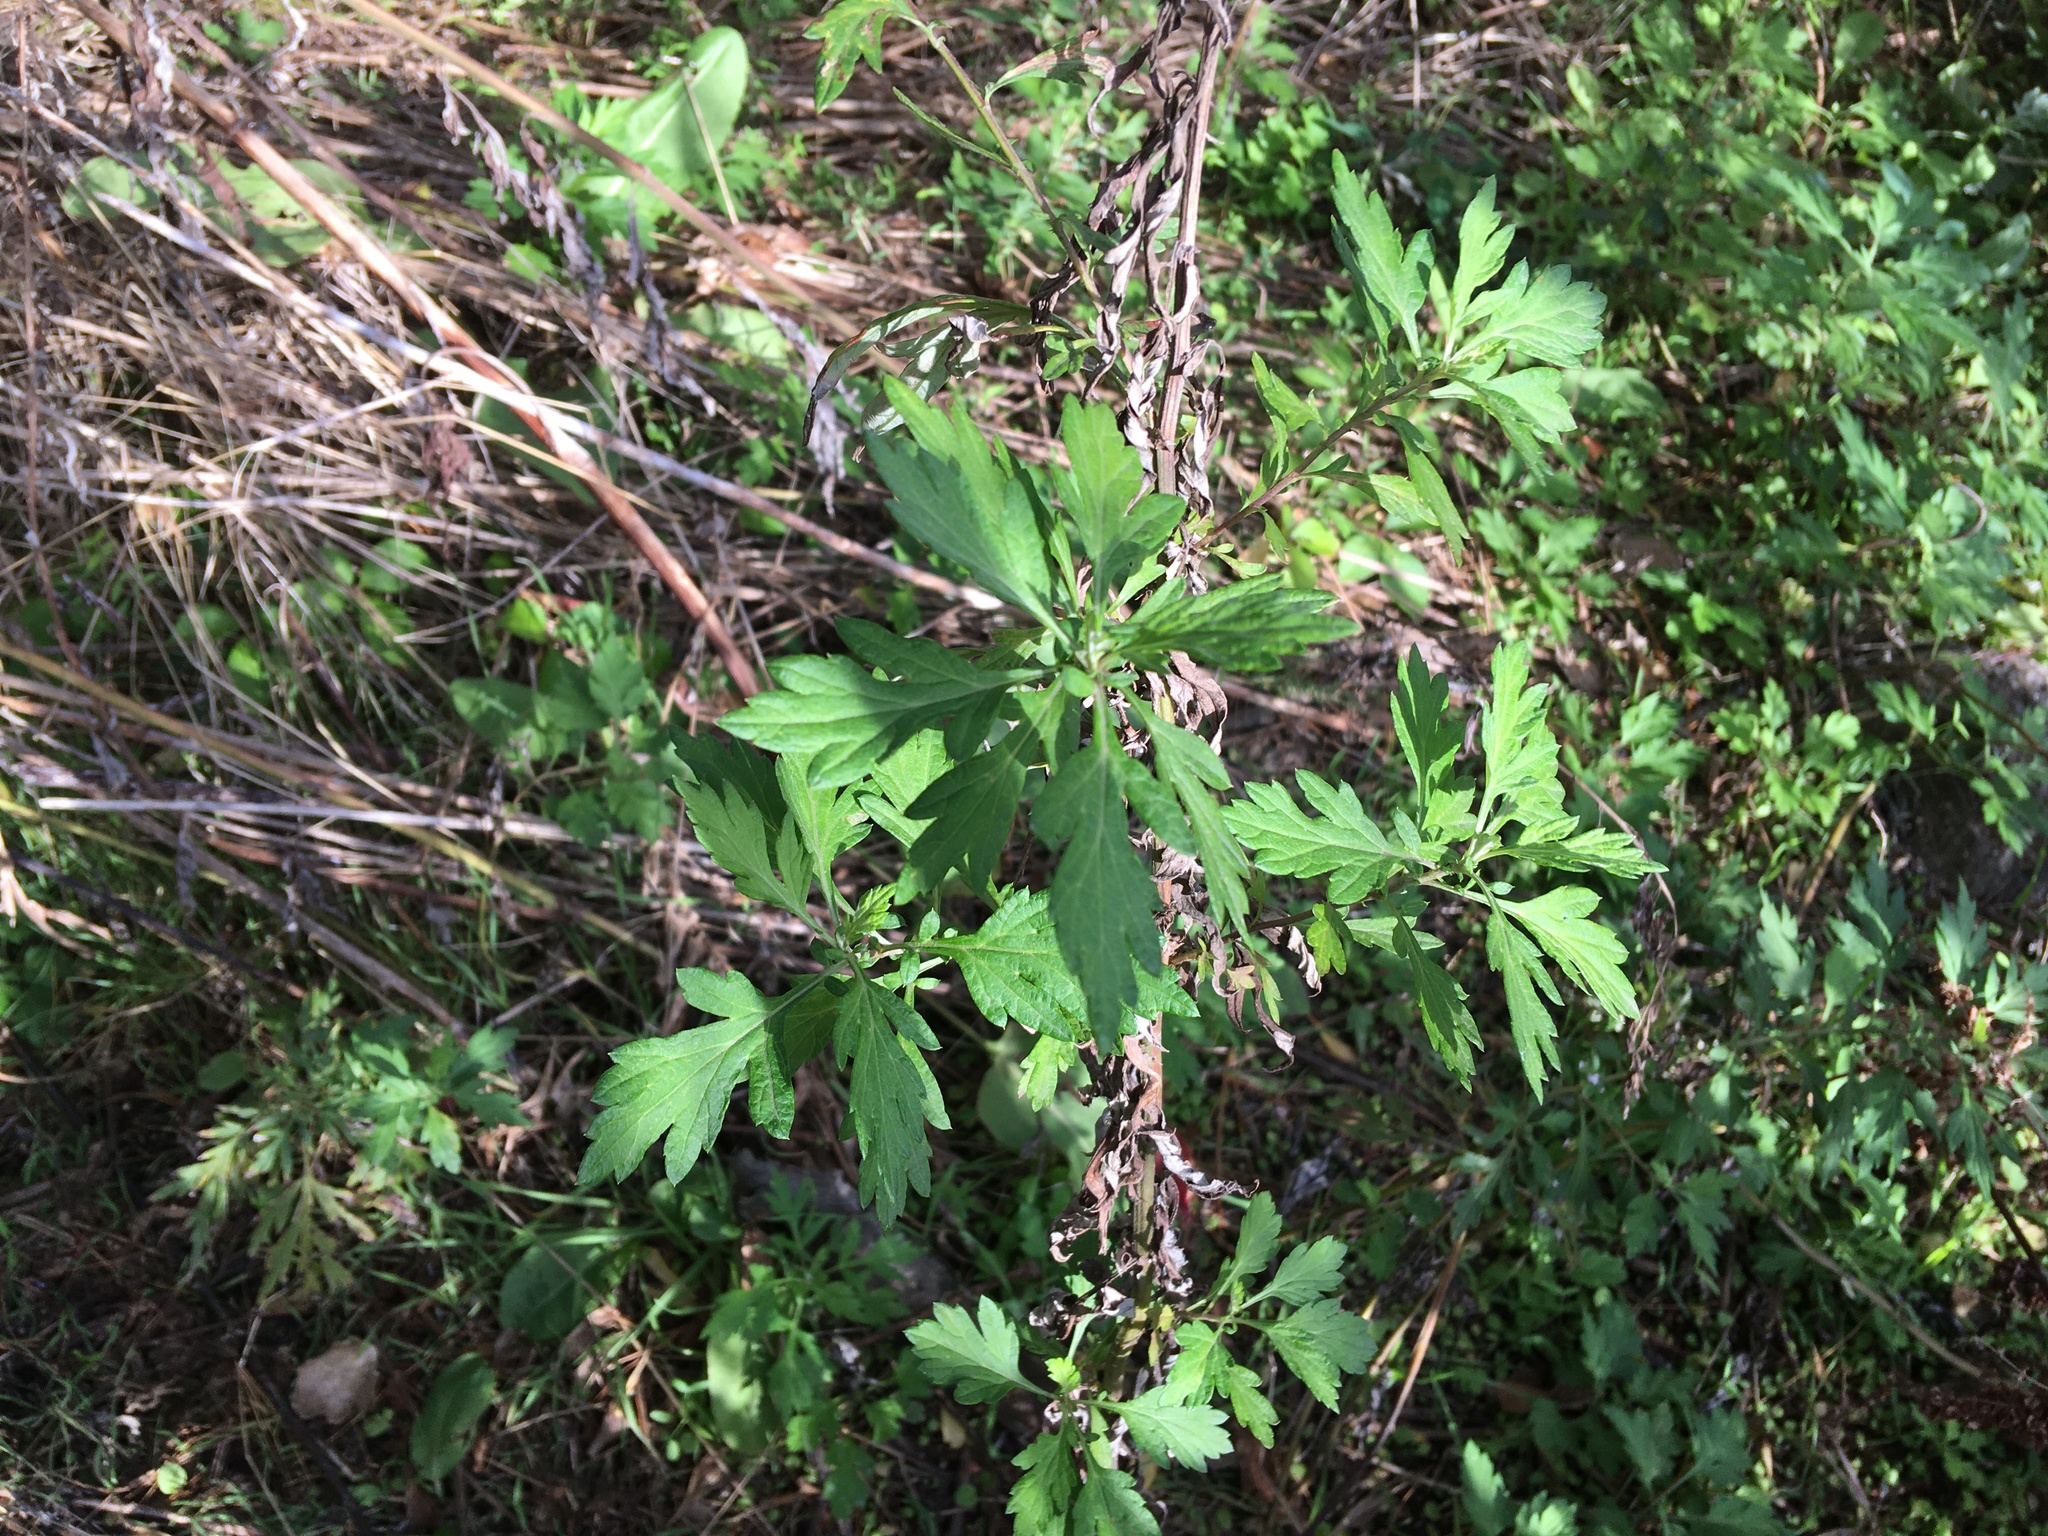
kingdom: Plantae
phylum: Tracheophyta
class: Magnoliopsida
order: Asterales
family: Asteraceae
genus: Artemisia
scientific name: Artemisia vulgaris
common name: Mugwort
